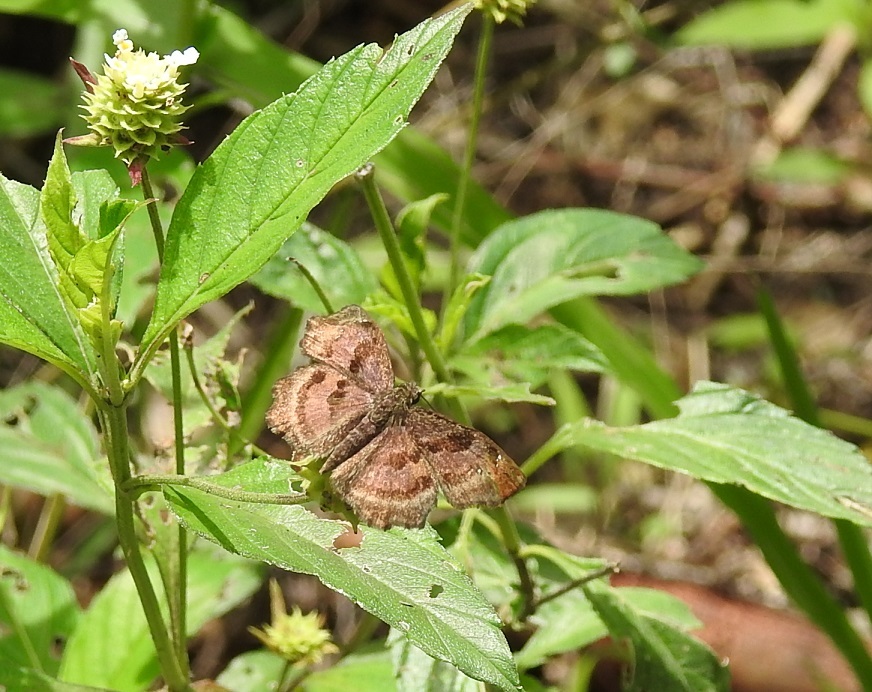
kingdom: Animalia
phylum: Arthropoda
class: Insecta
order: Lepidoptera
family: Hesperiidae
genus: Systaspes
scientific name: Systaspes
